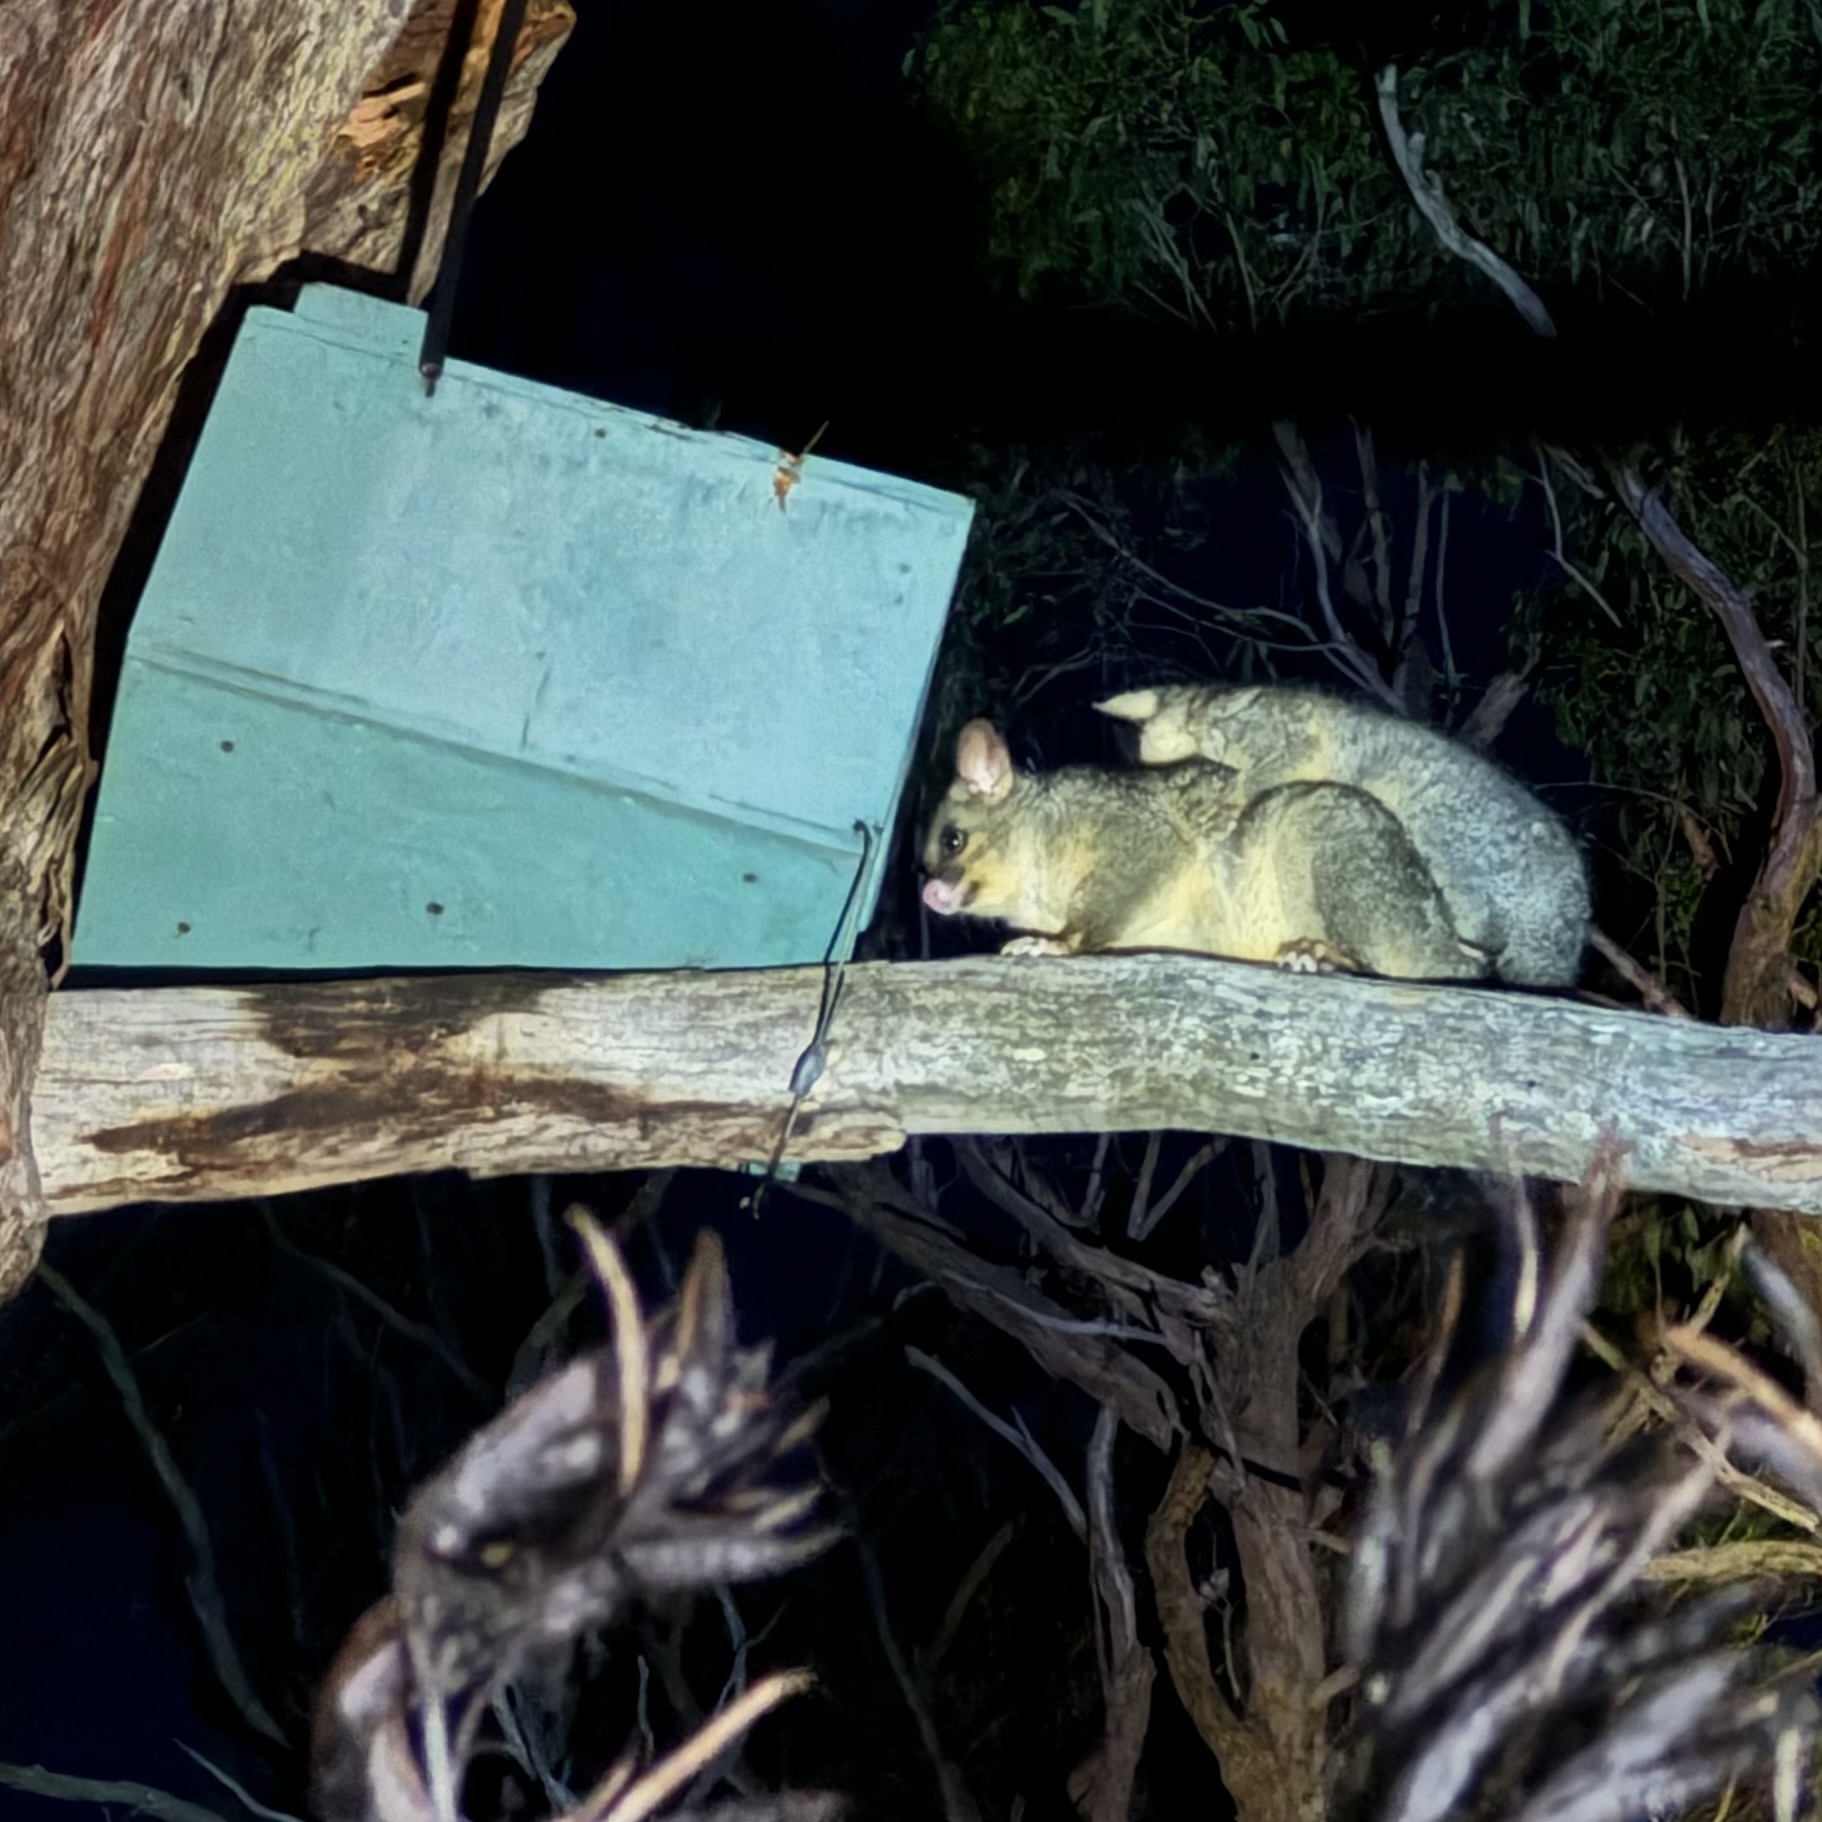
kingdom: Animalia
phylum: Chordata
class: Mammalia
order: Diprotodontia
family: Phalangeridae
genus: Trichosurus
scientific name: Trichosurus vulpecula
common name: Common brushtail
